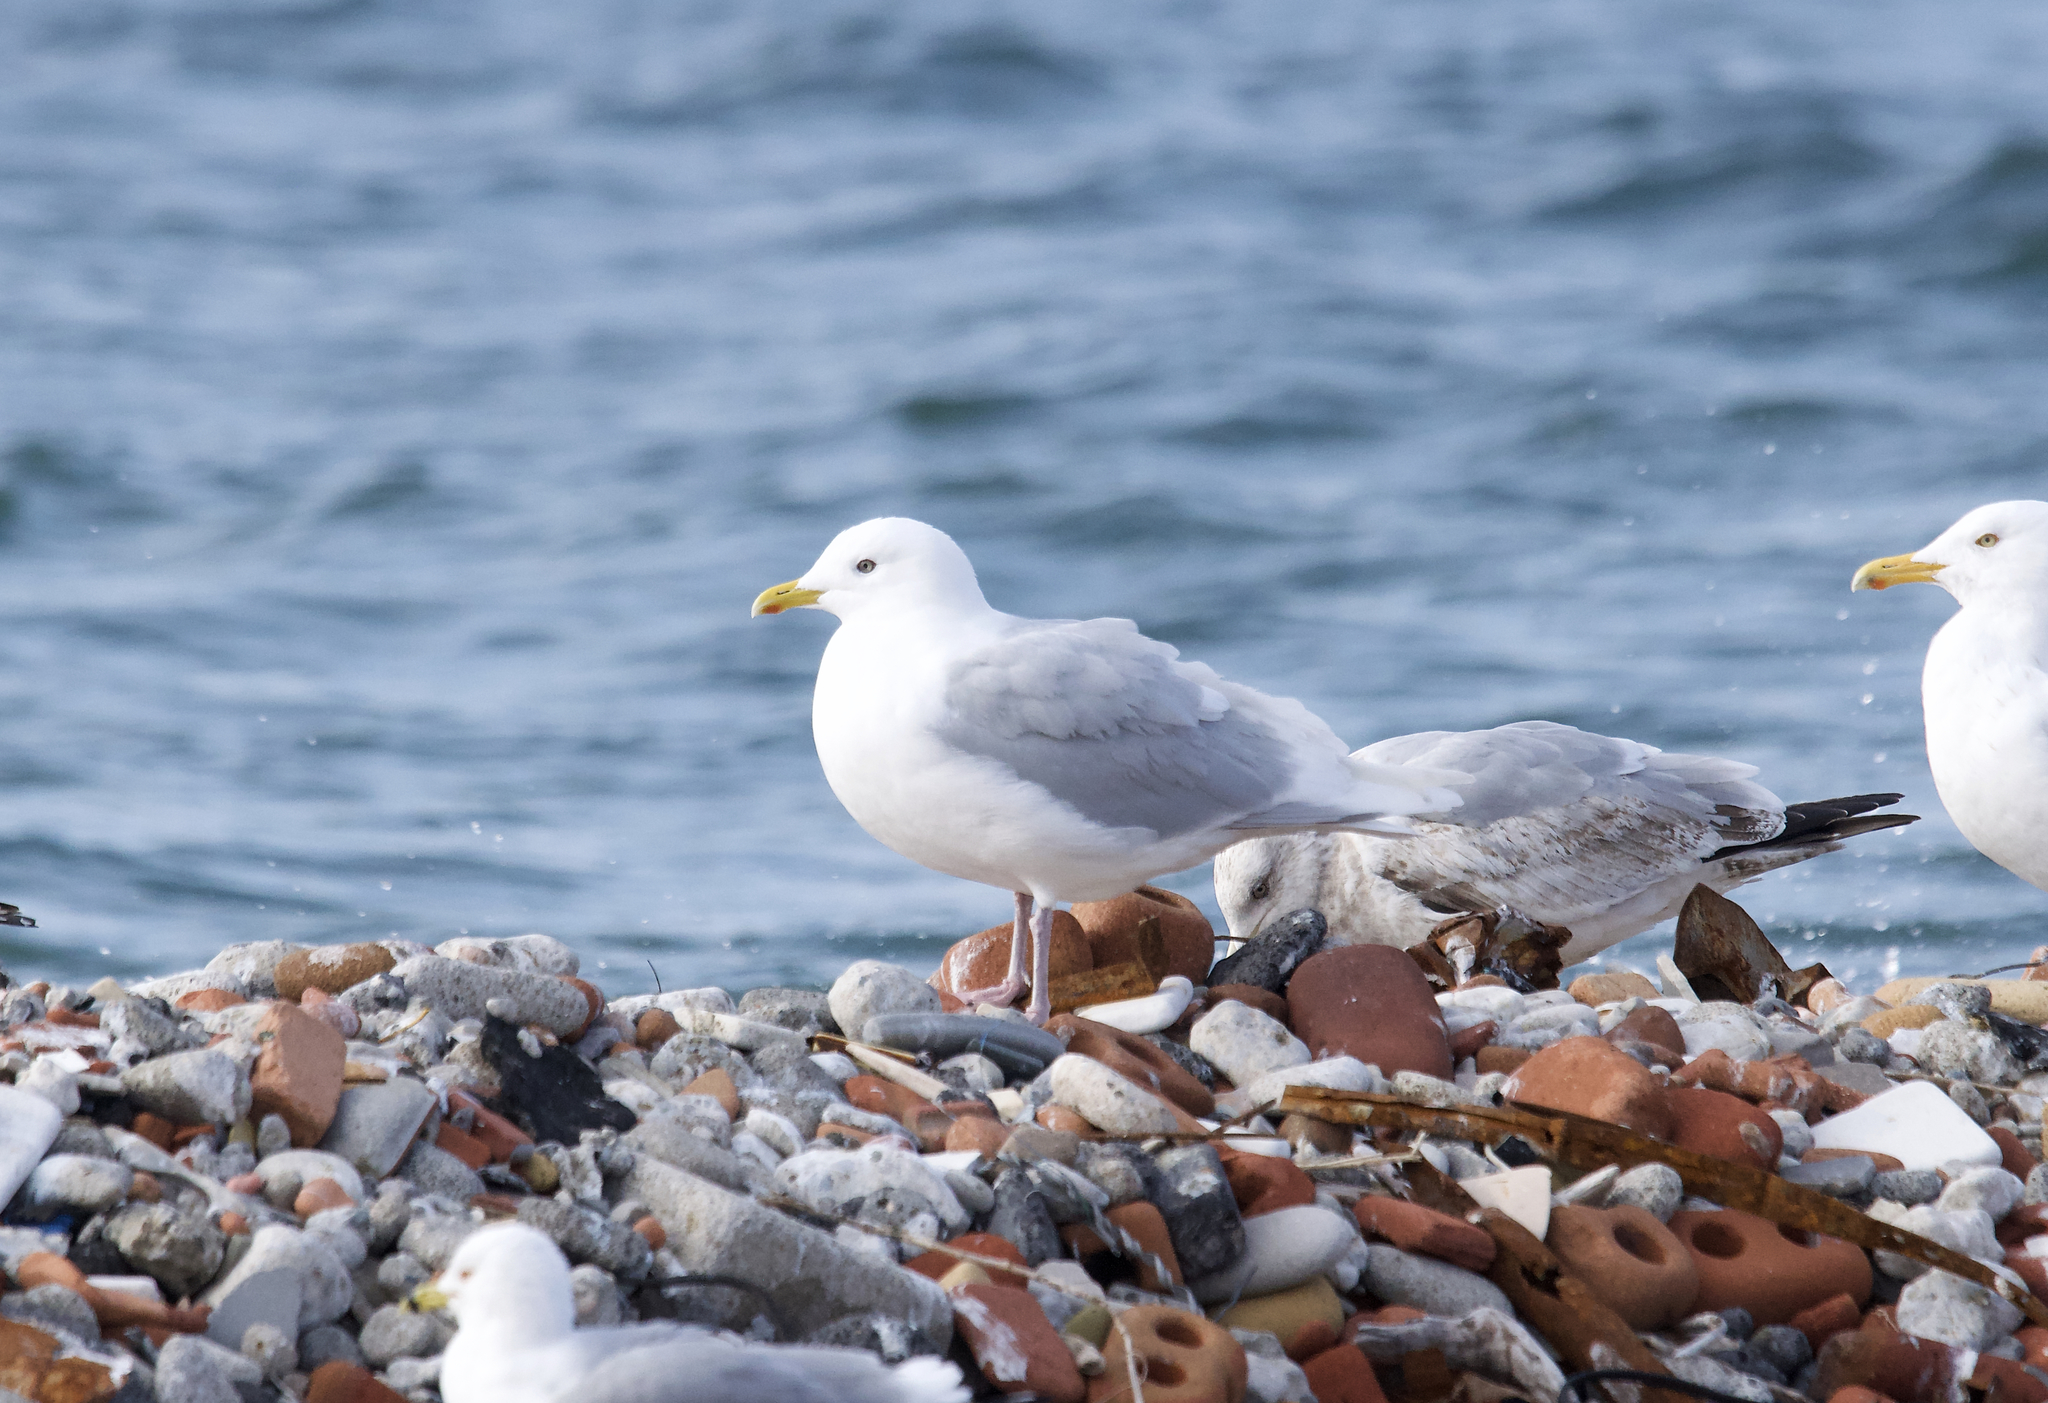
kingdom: Animalia
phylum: Chordata
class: Aves
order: Charadriiformes
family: Laridae
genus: Larus
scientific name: Larus glaucoides
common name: Iceland gull
